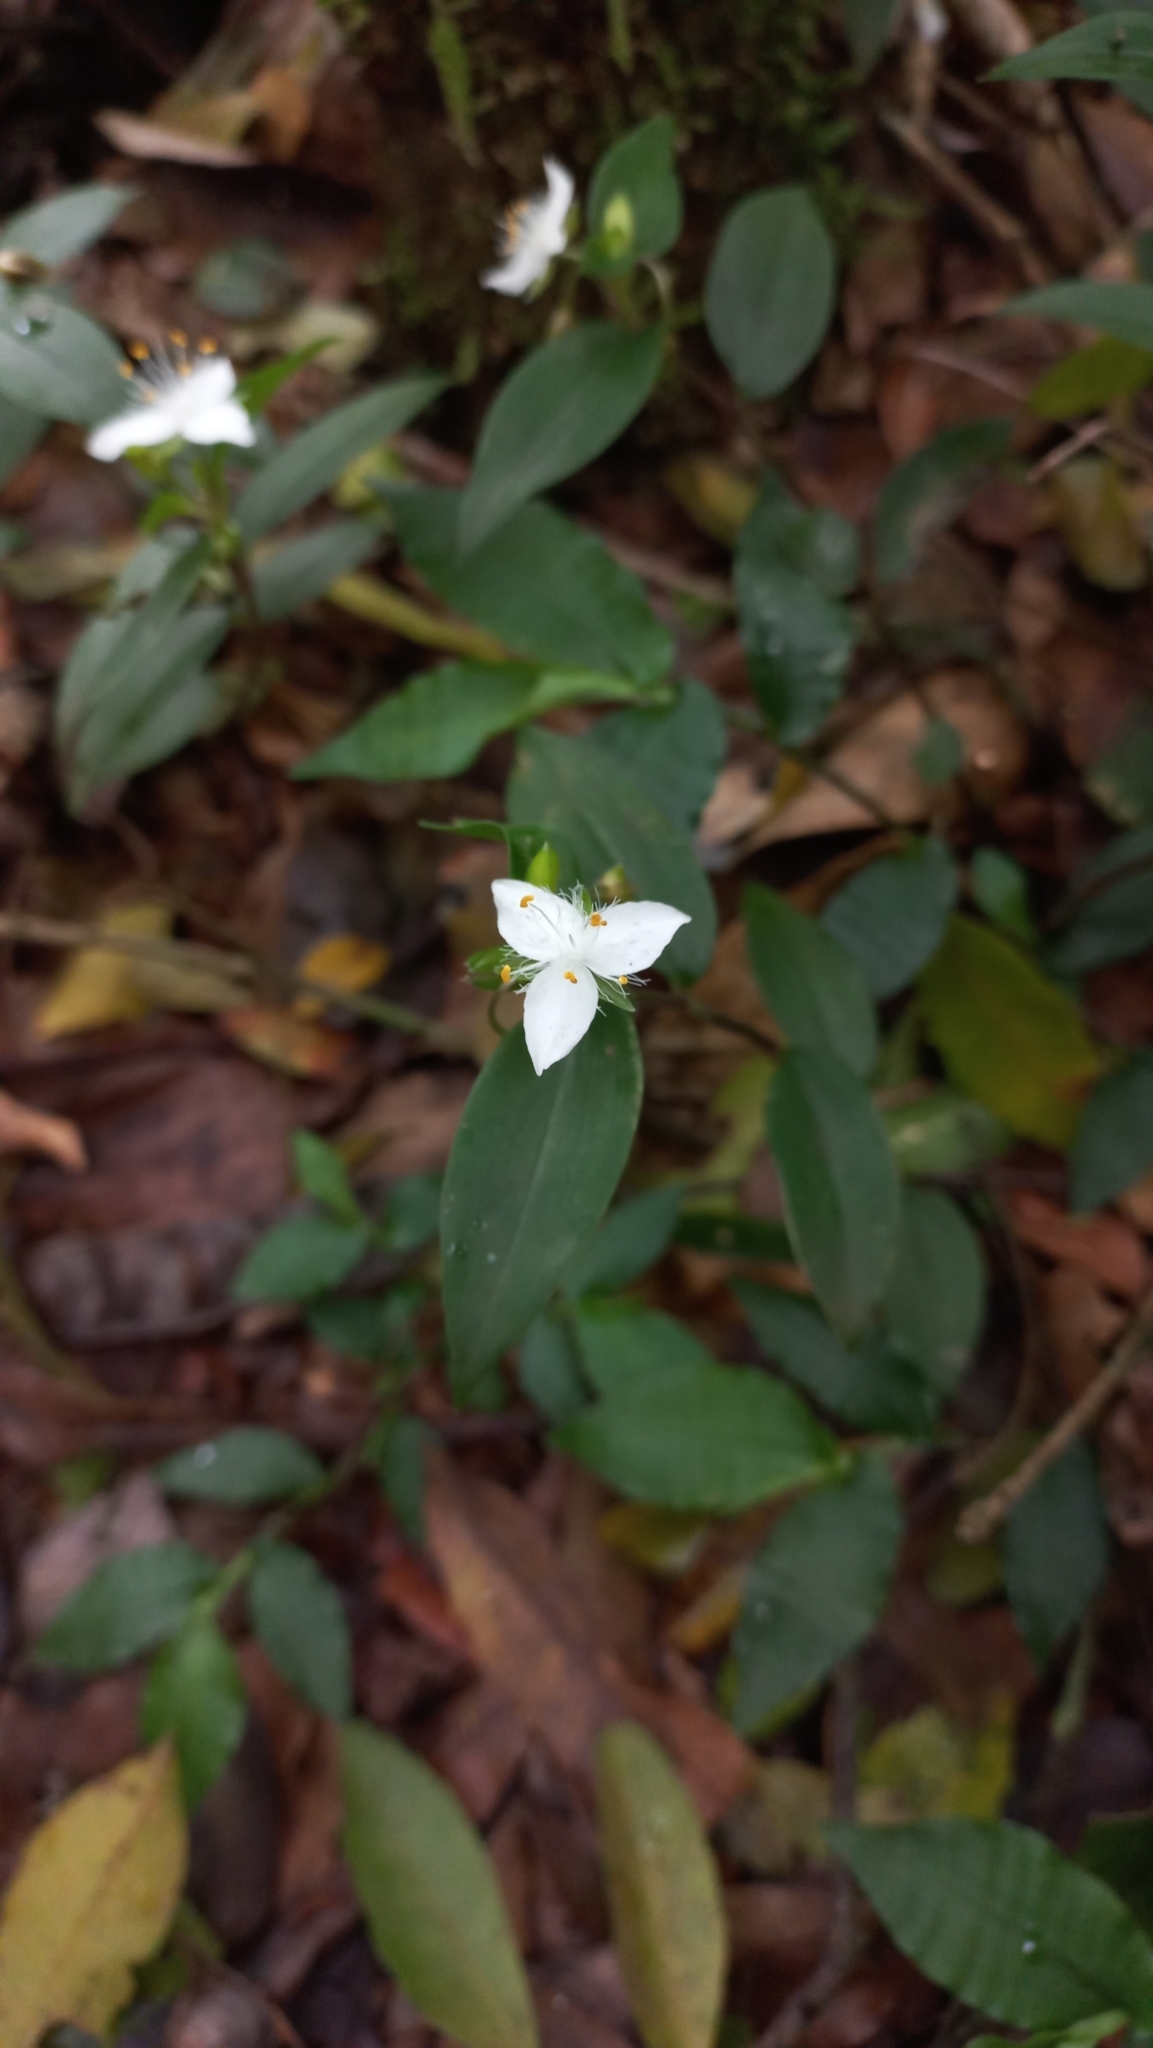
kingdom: Plantae
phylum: Tracheophyta
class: Liliopsida
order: Commelinales
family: Commelinaceae
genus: Tradescantia
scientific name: Tradescantia fluminensis
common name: Wandering-jew
